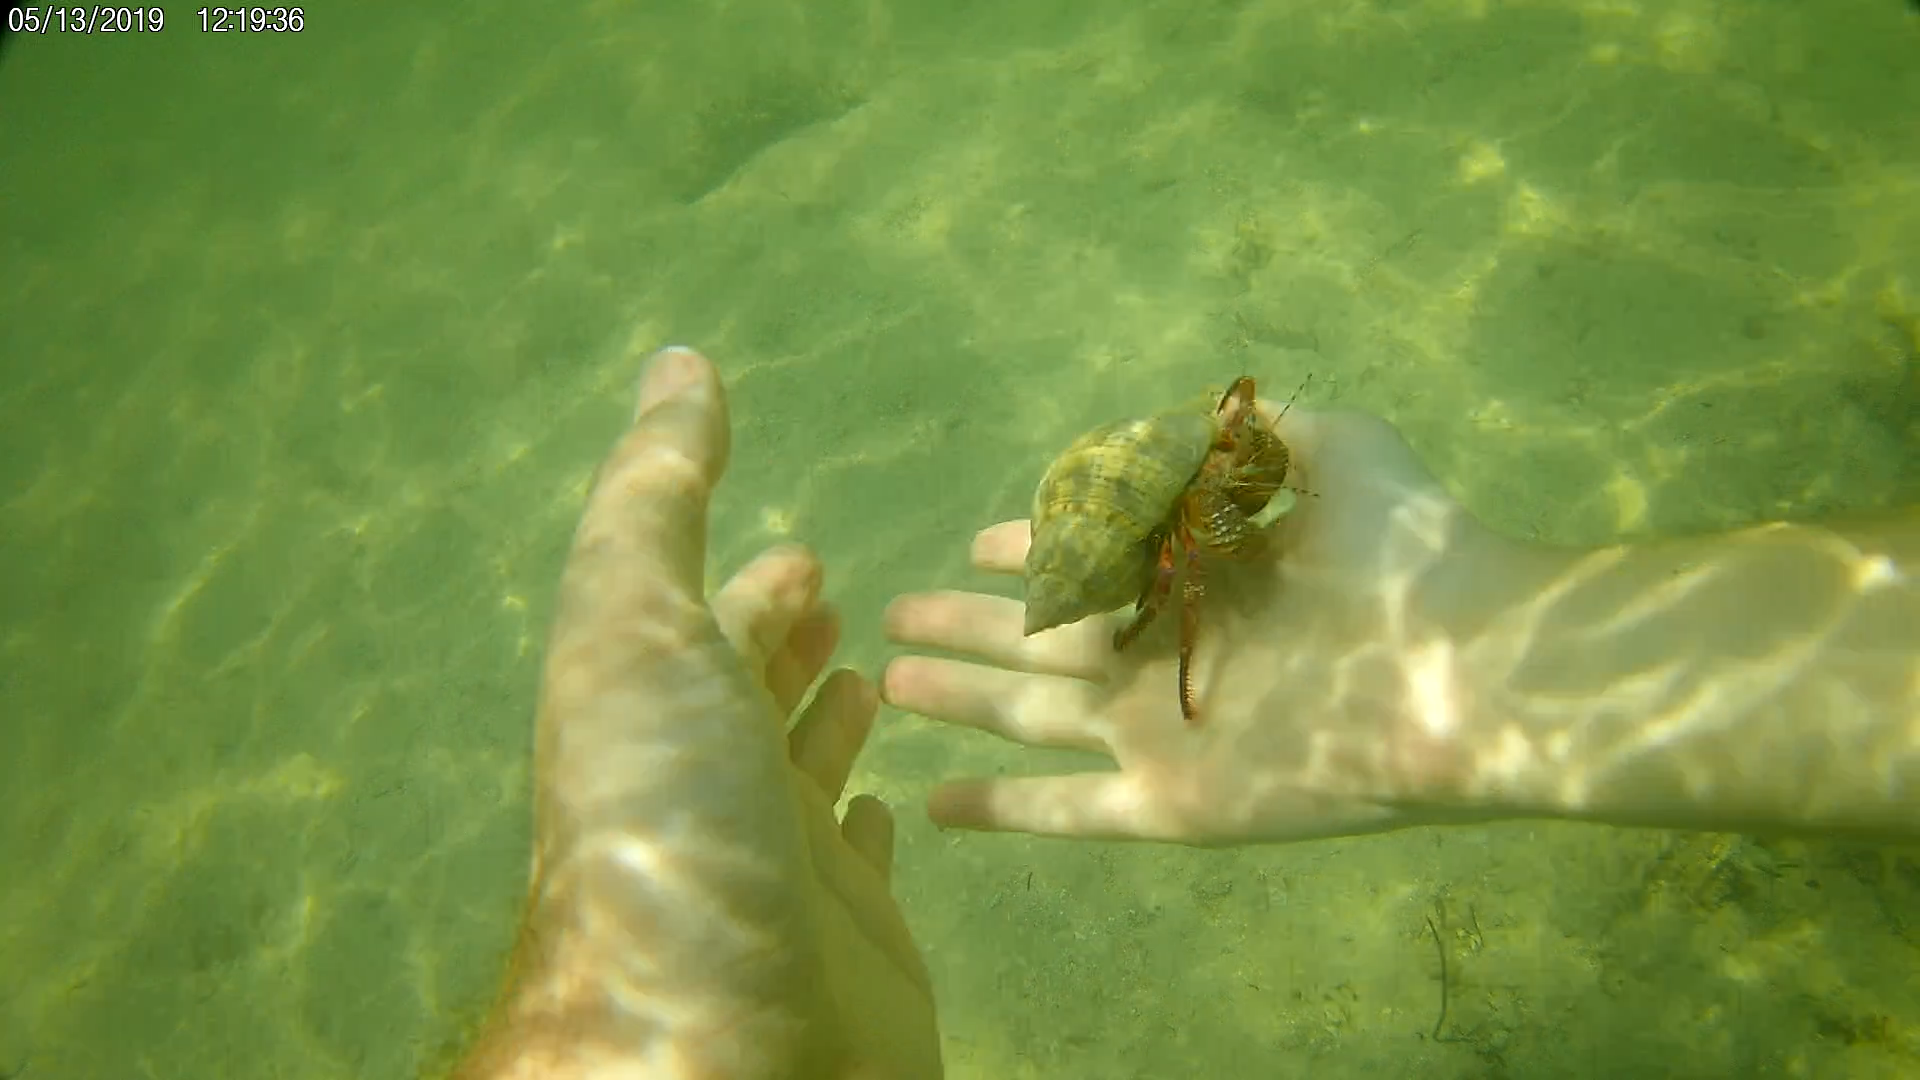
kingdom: Animalia
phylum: Arthropoda
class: Malacostraca
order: Decapoda
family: Diogenidae
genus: Petrochirus
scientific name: Petrochirus diogenes
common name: Giant hermit crab
